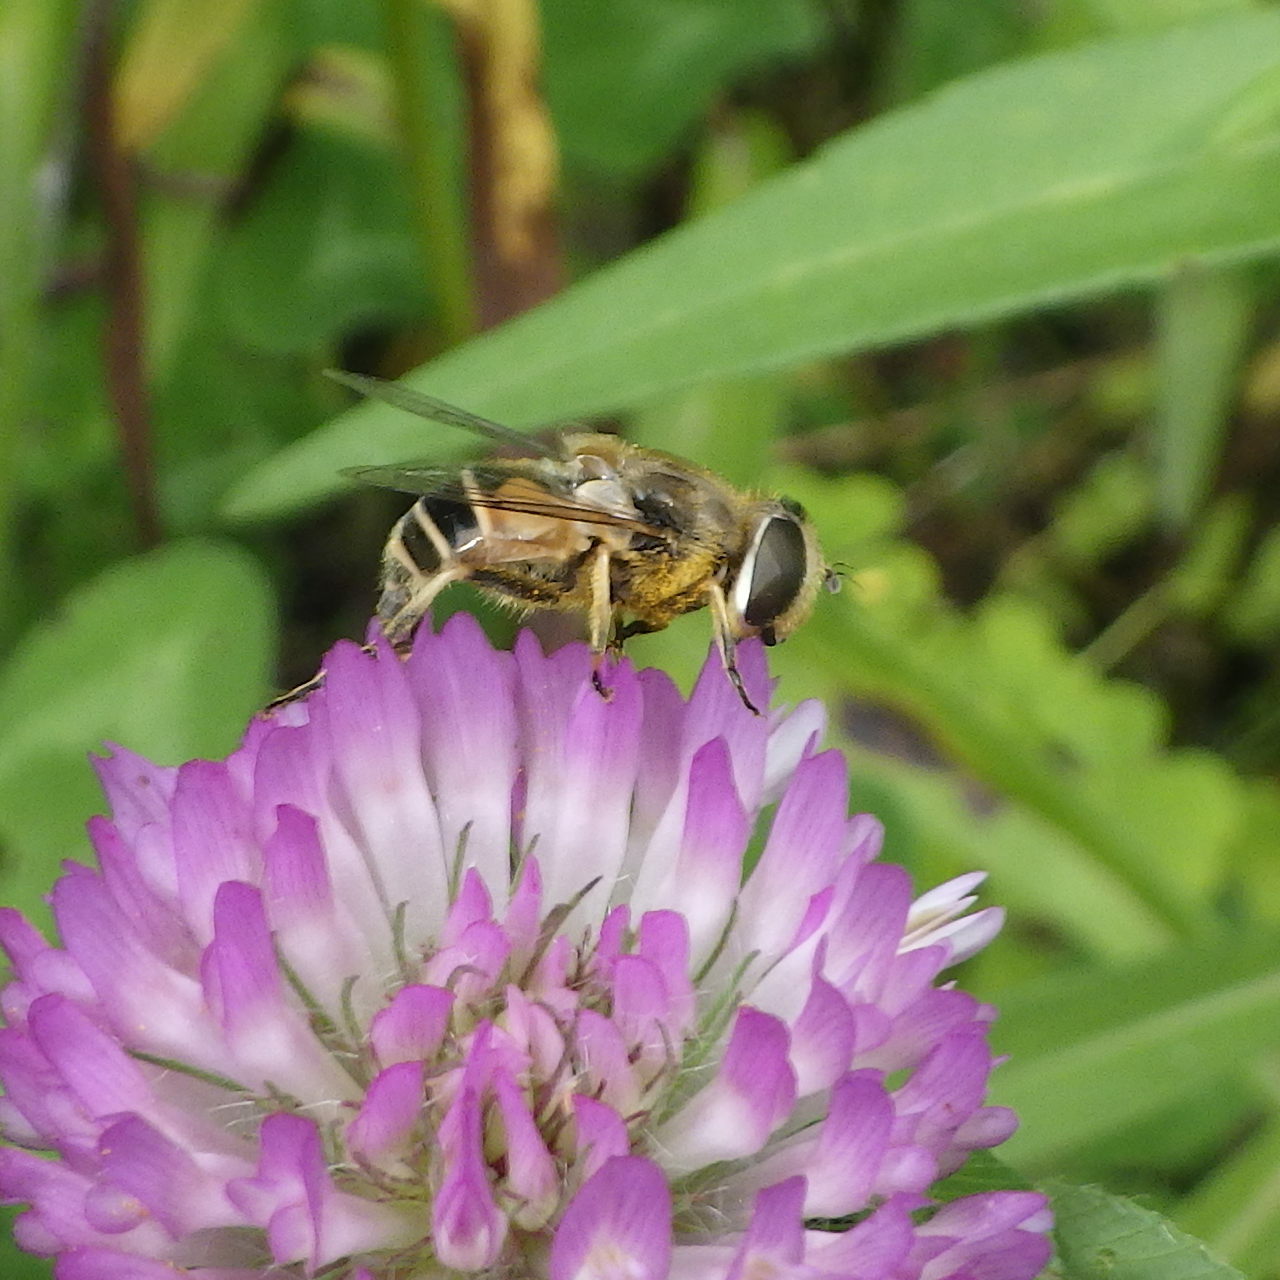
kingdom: Animalia
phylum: Arthropoda
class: Insecta
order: Diptera
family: Syrphidae
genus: Eristalis
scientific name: Eristalis arbustorum
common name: Hover fly
